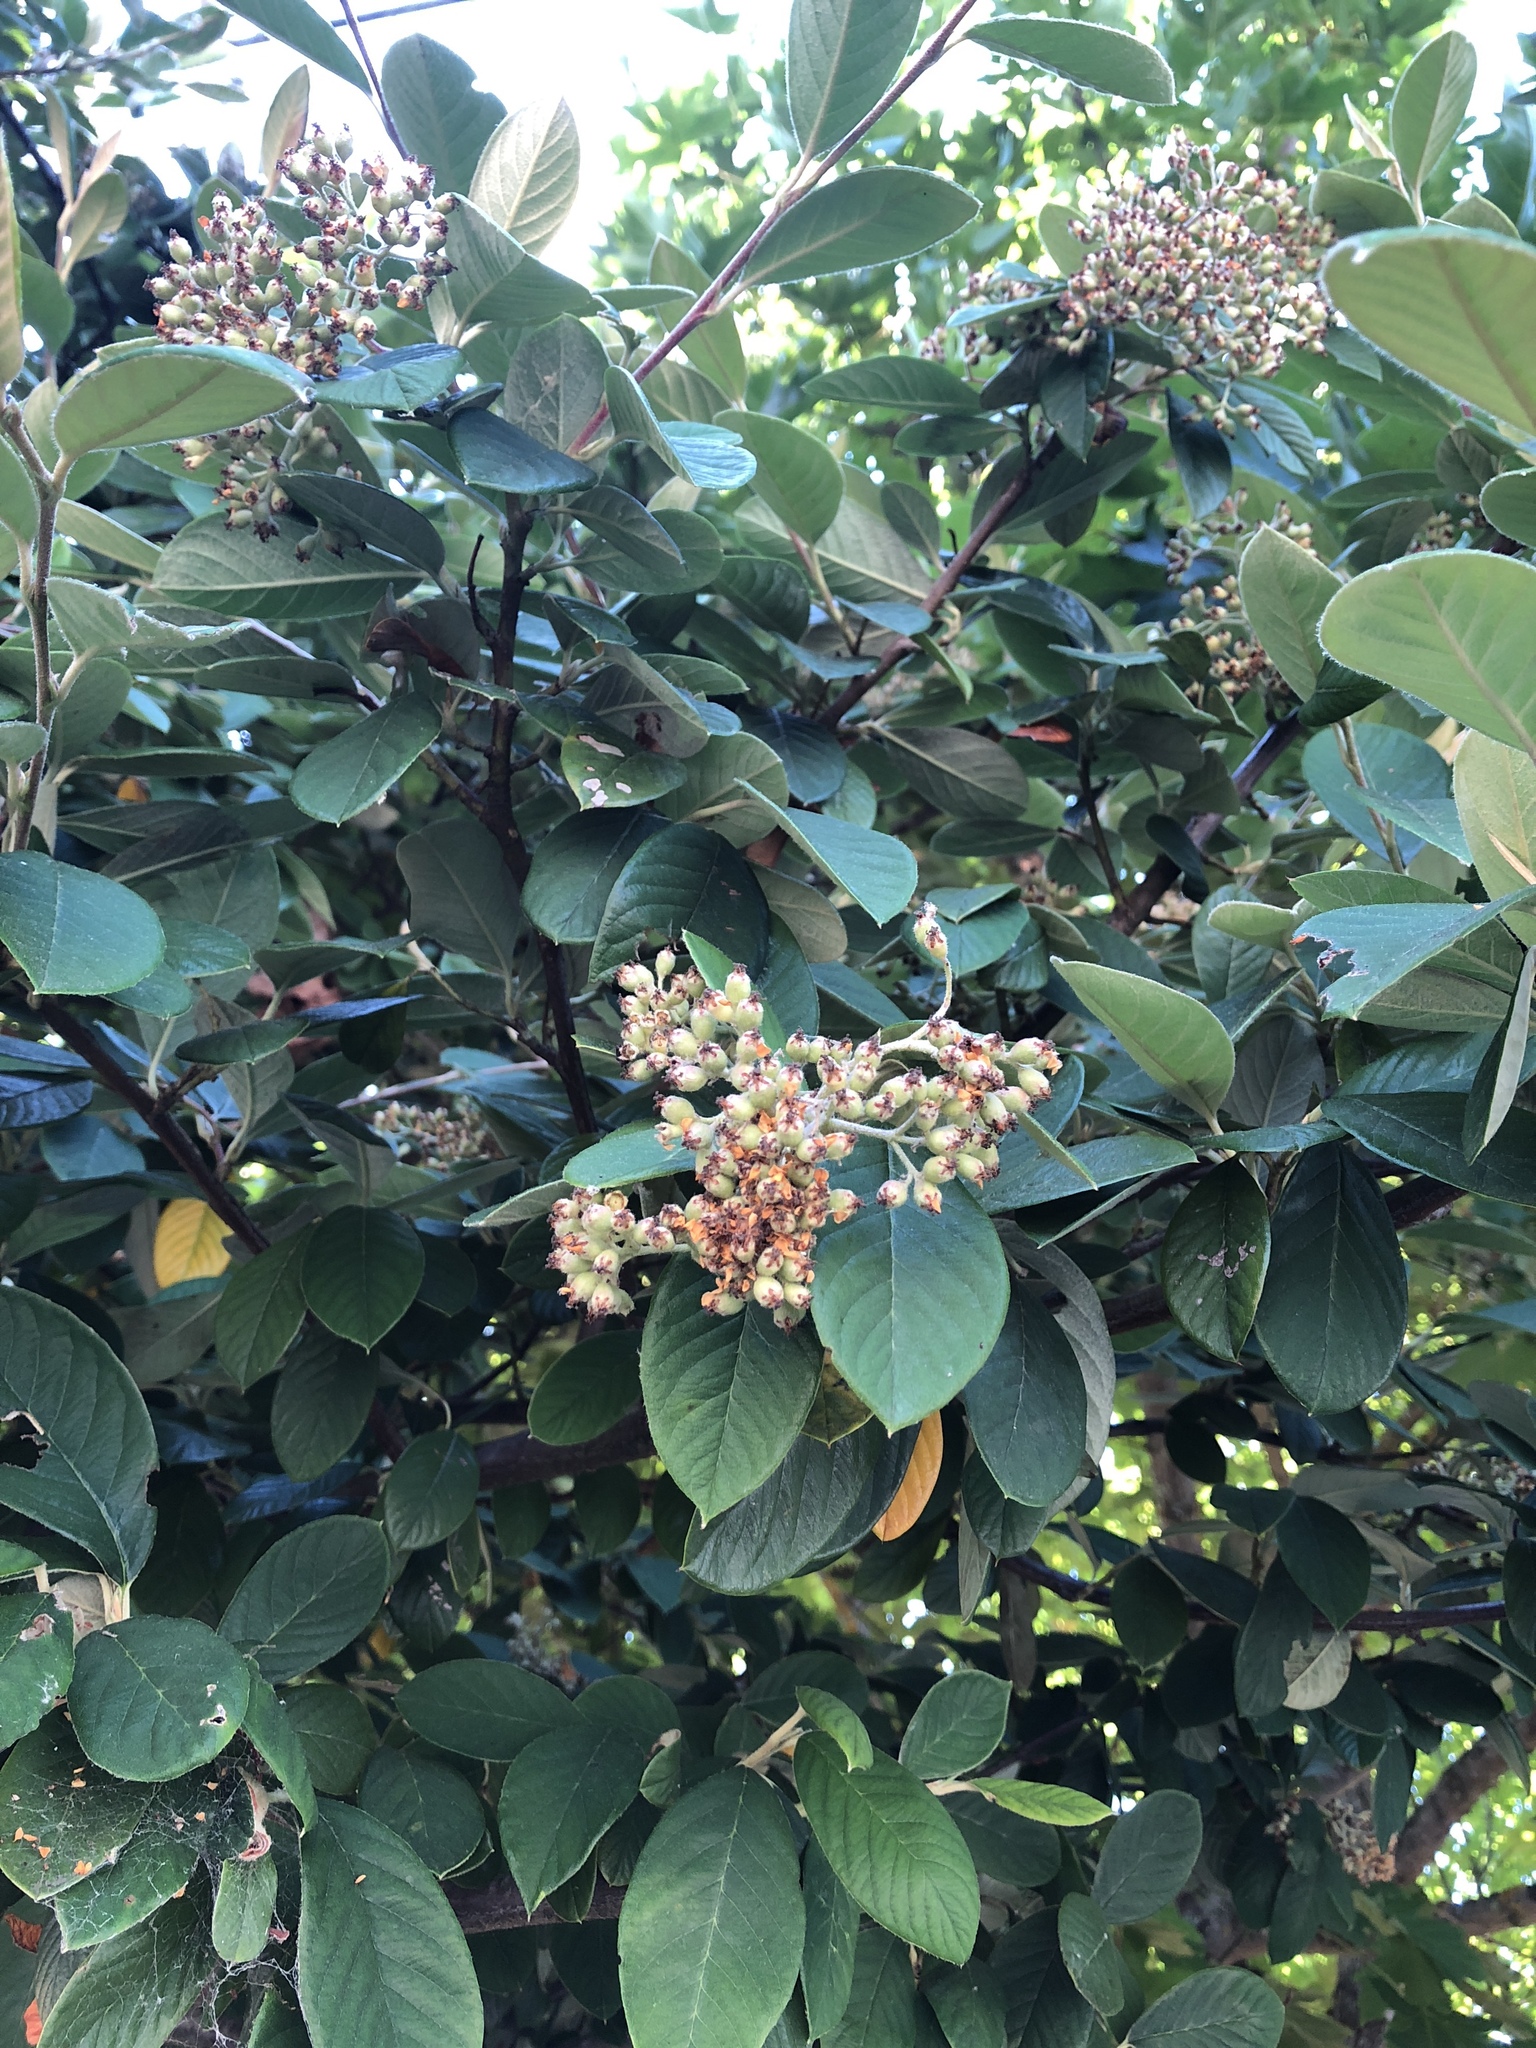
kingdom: Plantae
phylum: Tracheophyta
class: Magnoliopsida
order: Rosales
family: Rosaceae
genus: Cotoneaster
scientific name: Cotoneaster coriaceus
